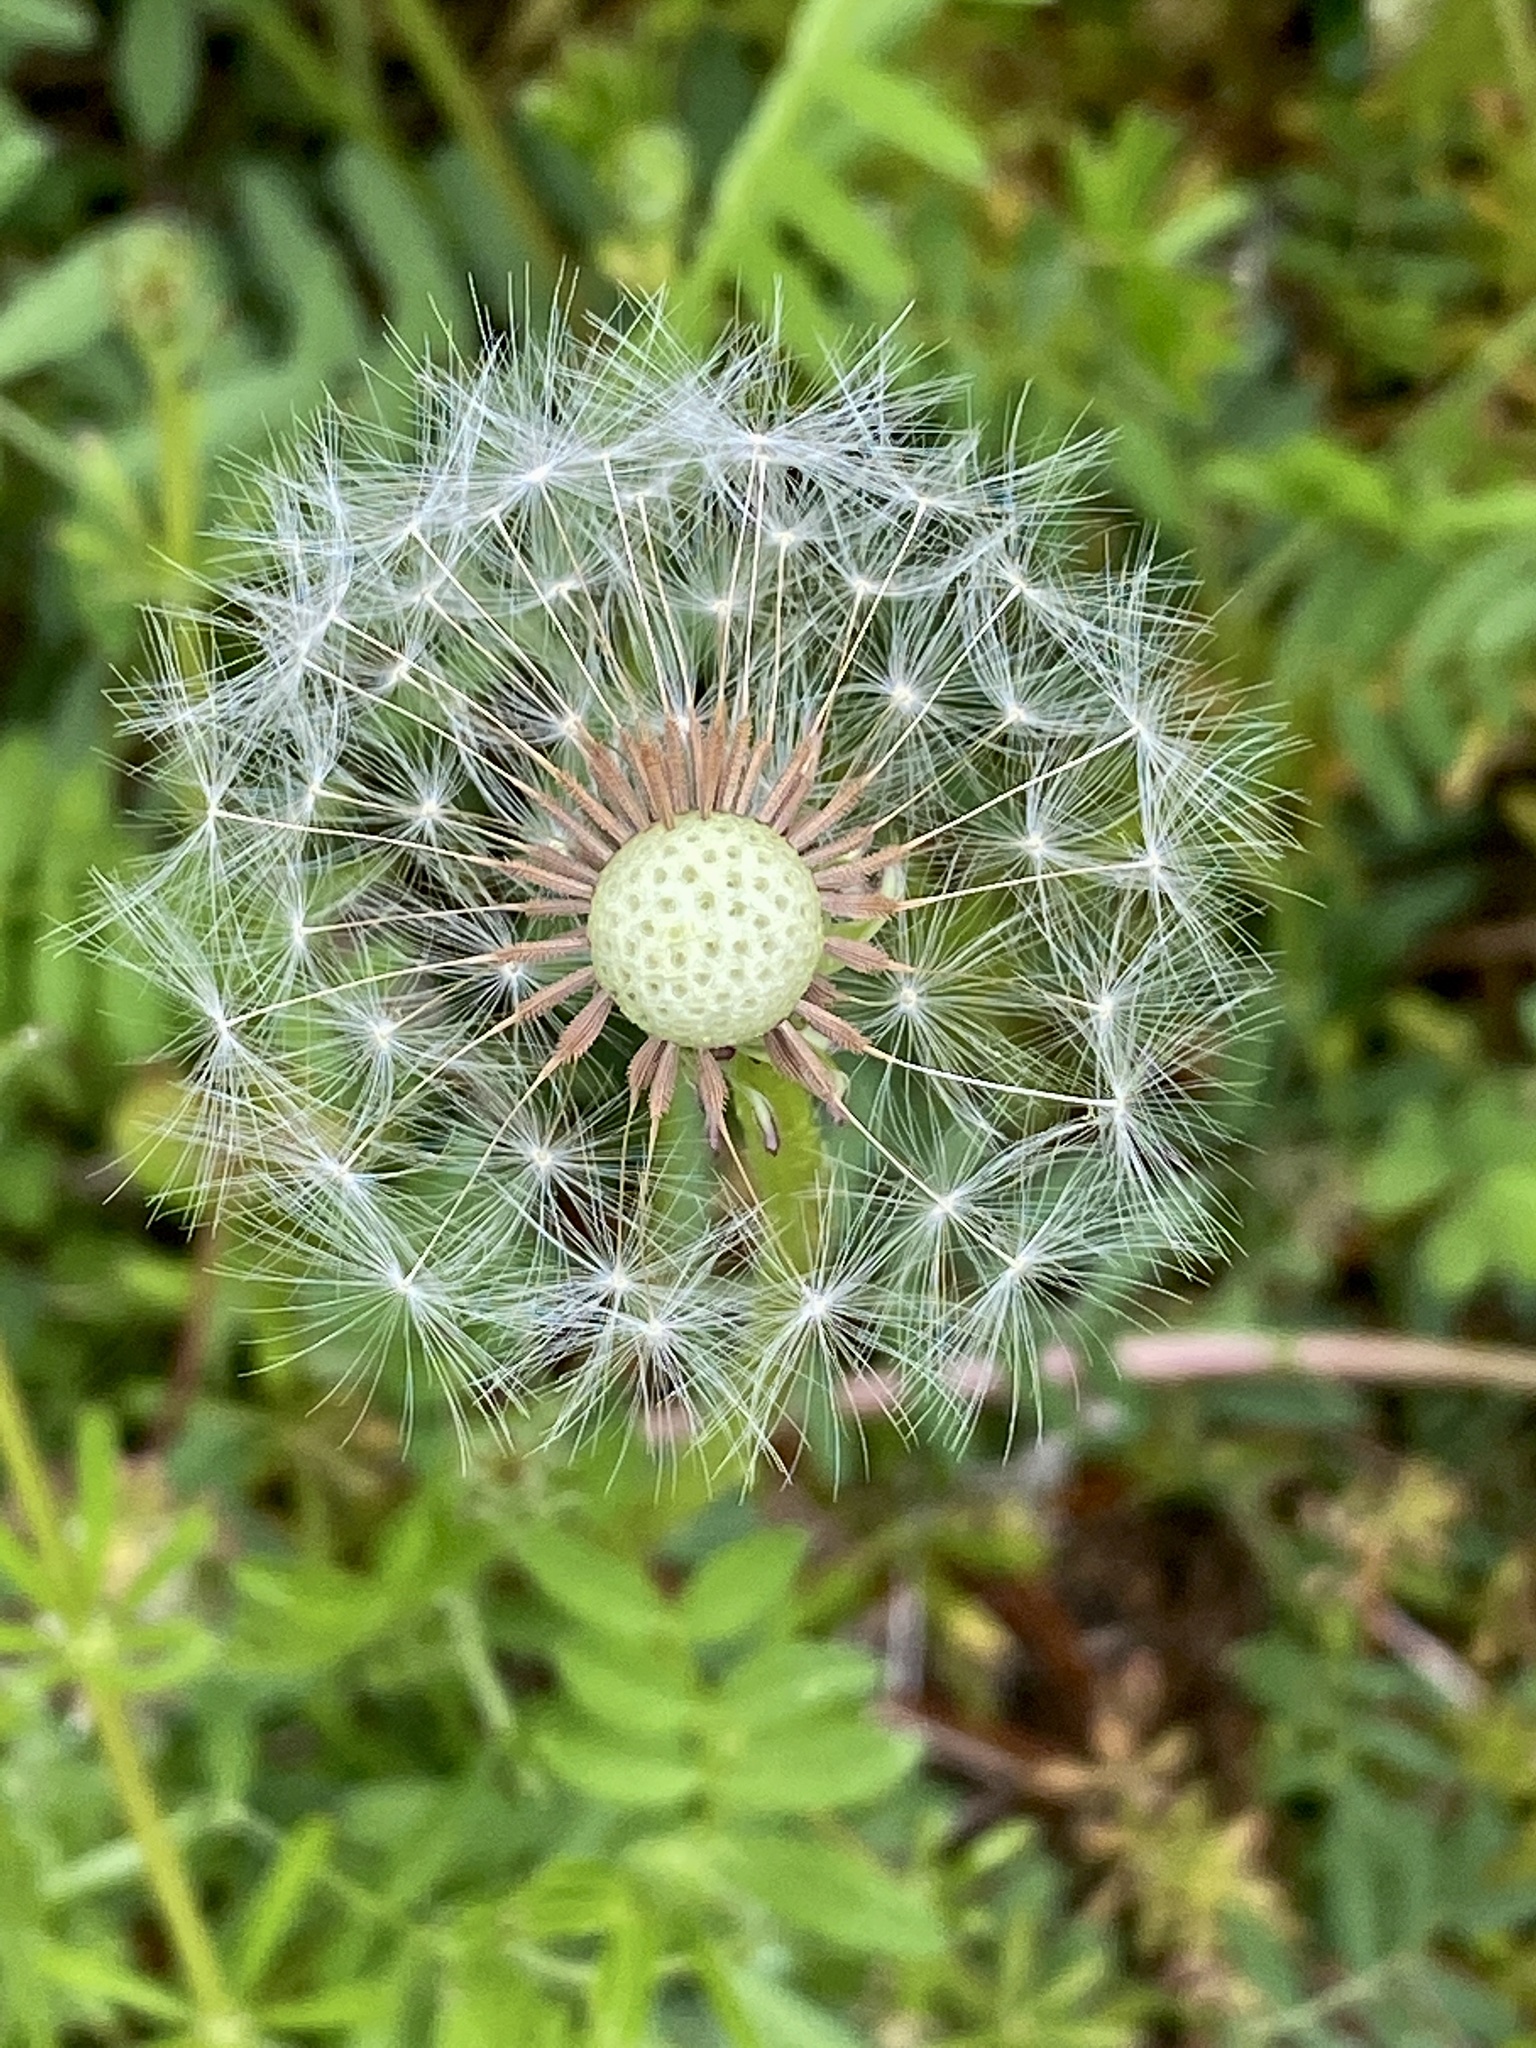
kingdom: Plantae
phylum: Tracheophyta
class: Magnoliopsida
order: Asterales
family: Asteraceae
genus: Taraxacum
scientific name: Taraxacum officinale
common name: Common dandelion
